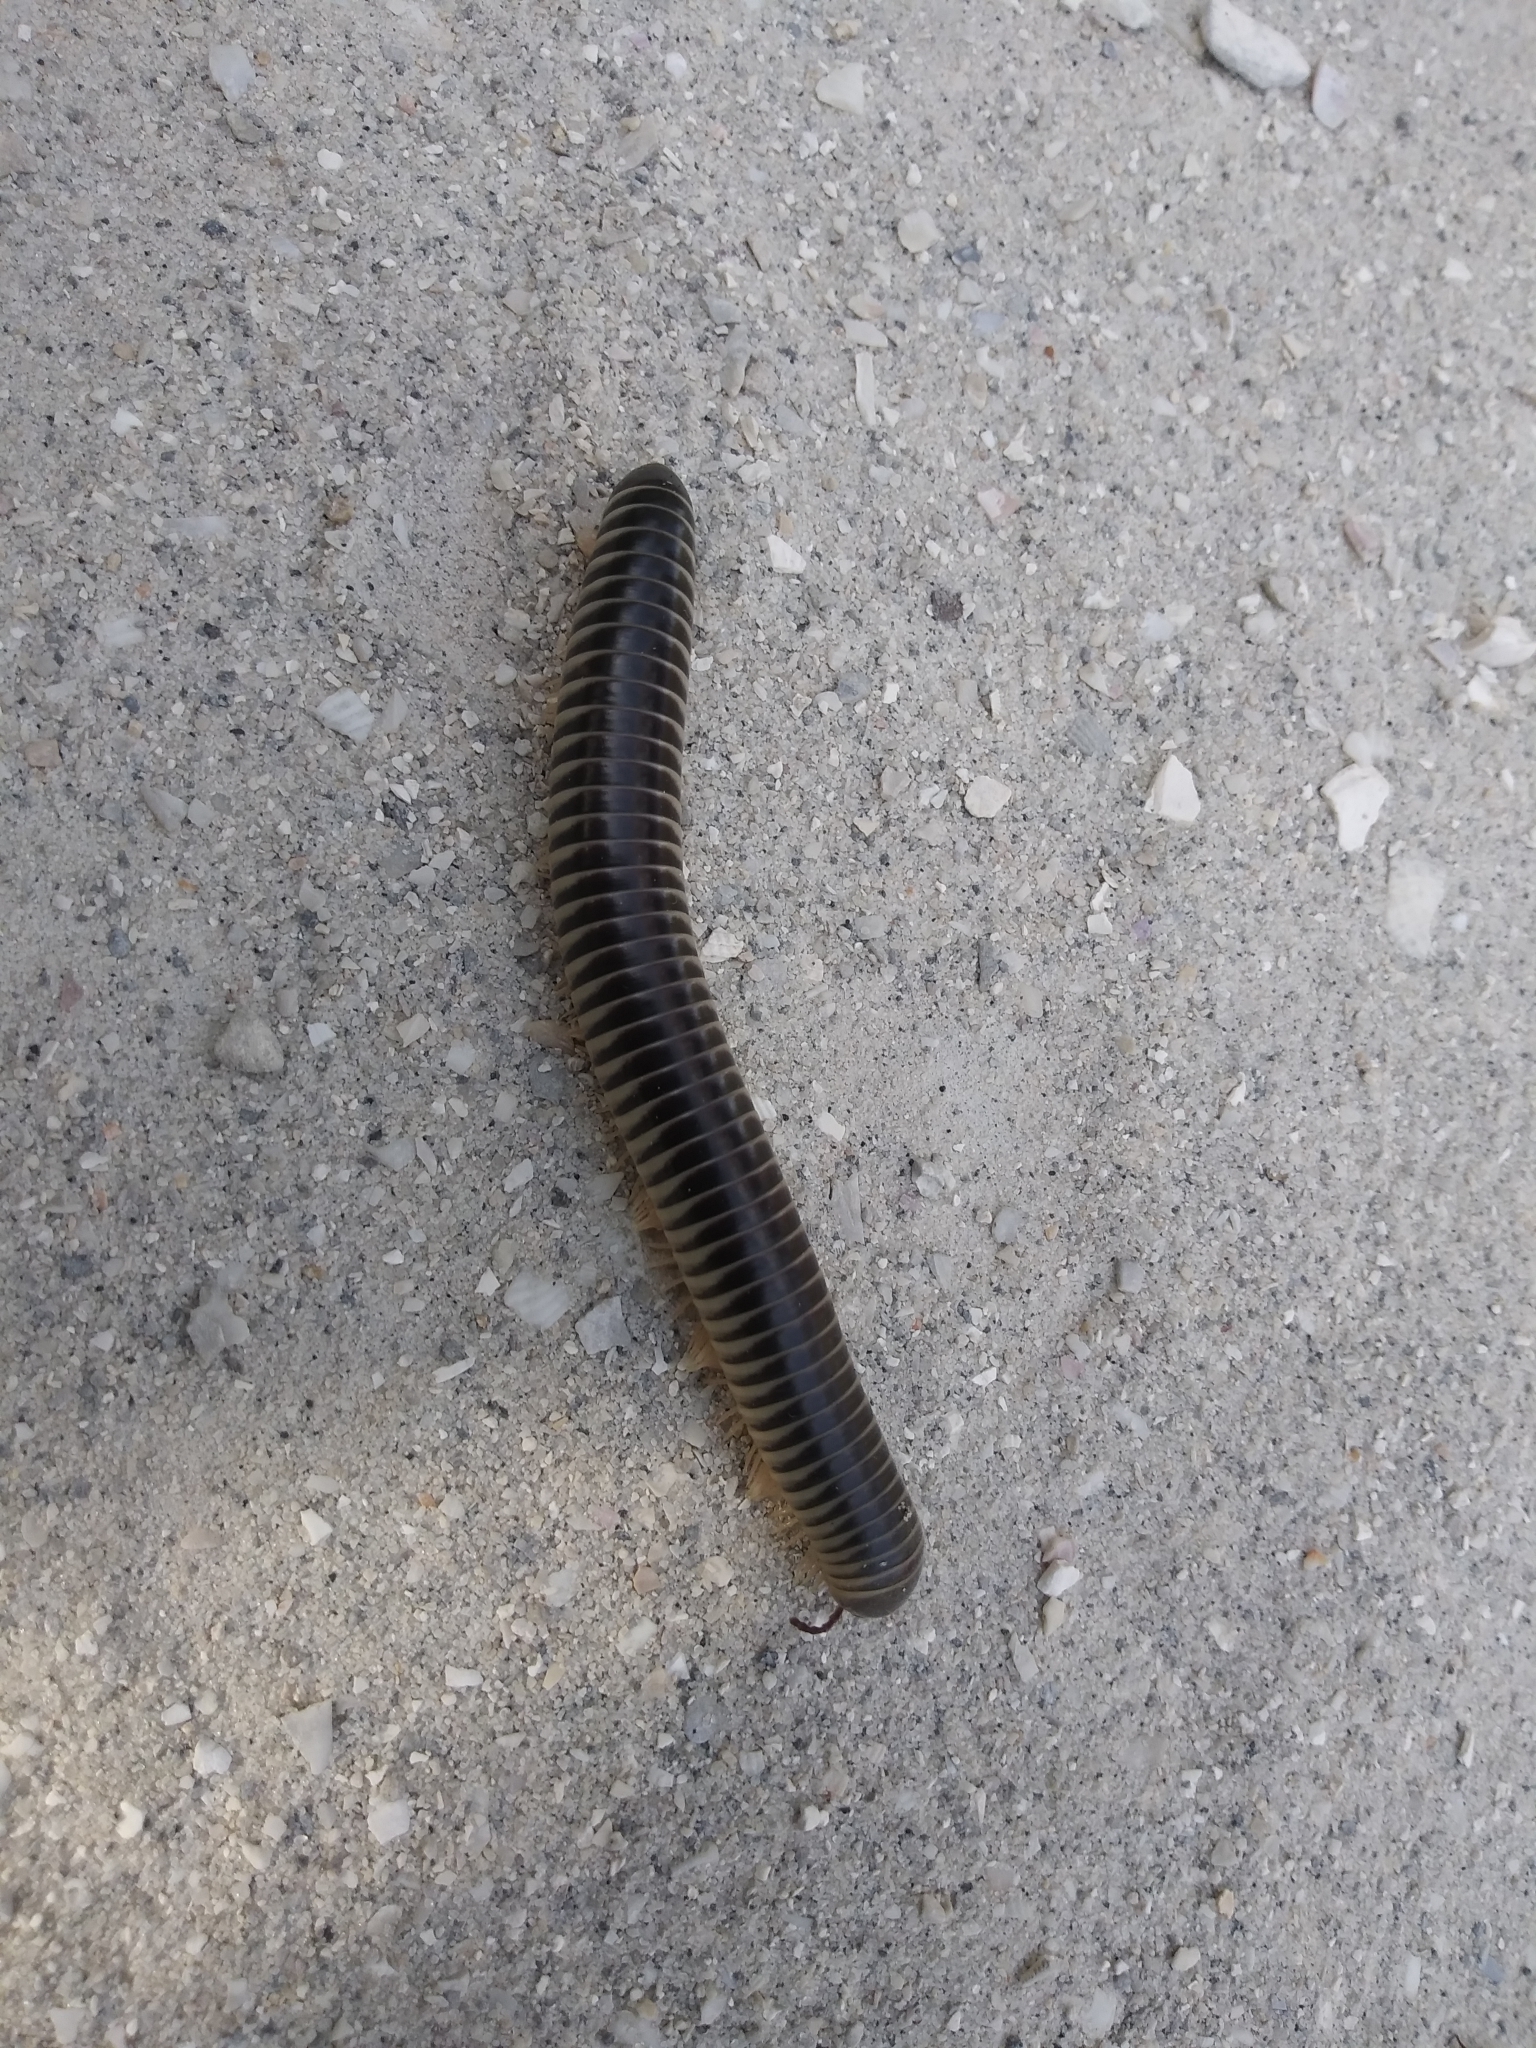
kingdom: Animalia
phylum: Arthropoda
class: Diplopoda
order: Spirobolida
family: Spirobolidae
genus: Chicobolus
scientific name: Chicobolus spinigerus
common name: Florida ivory millipede
